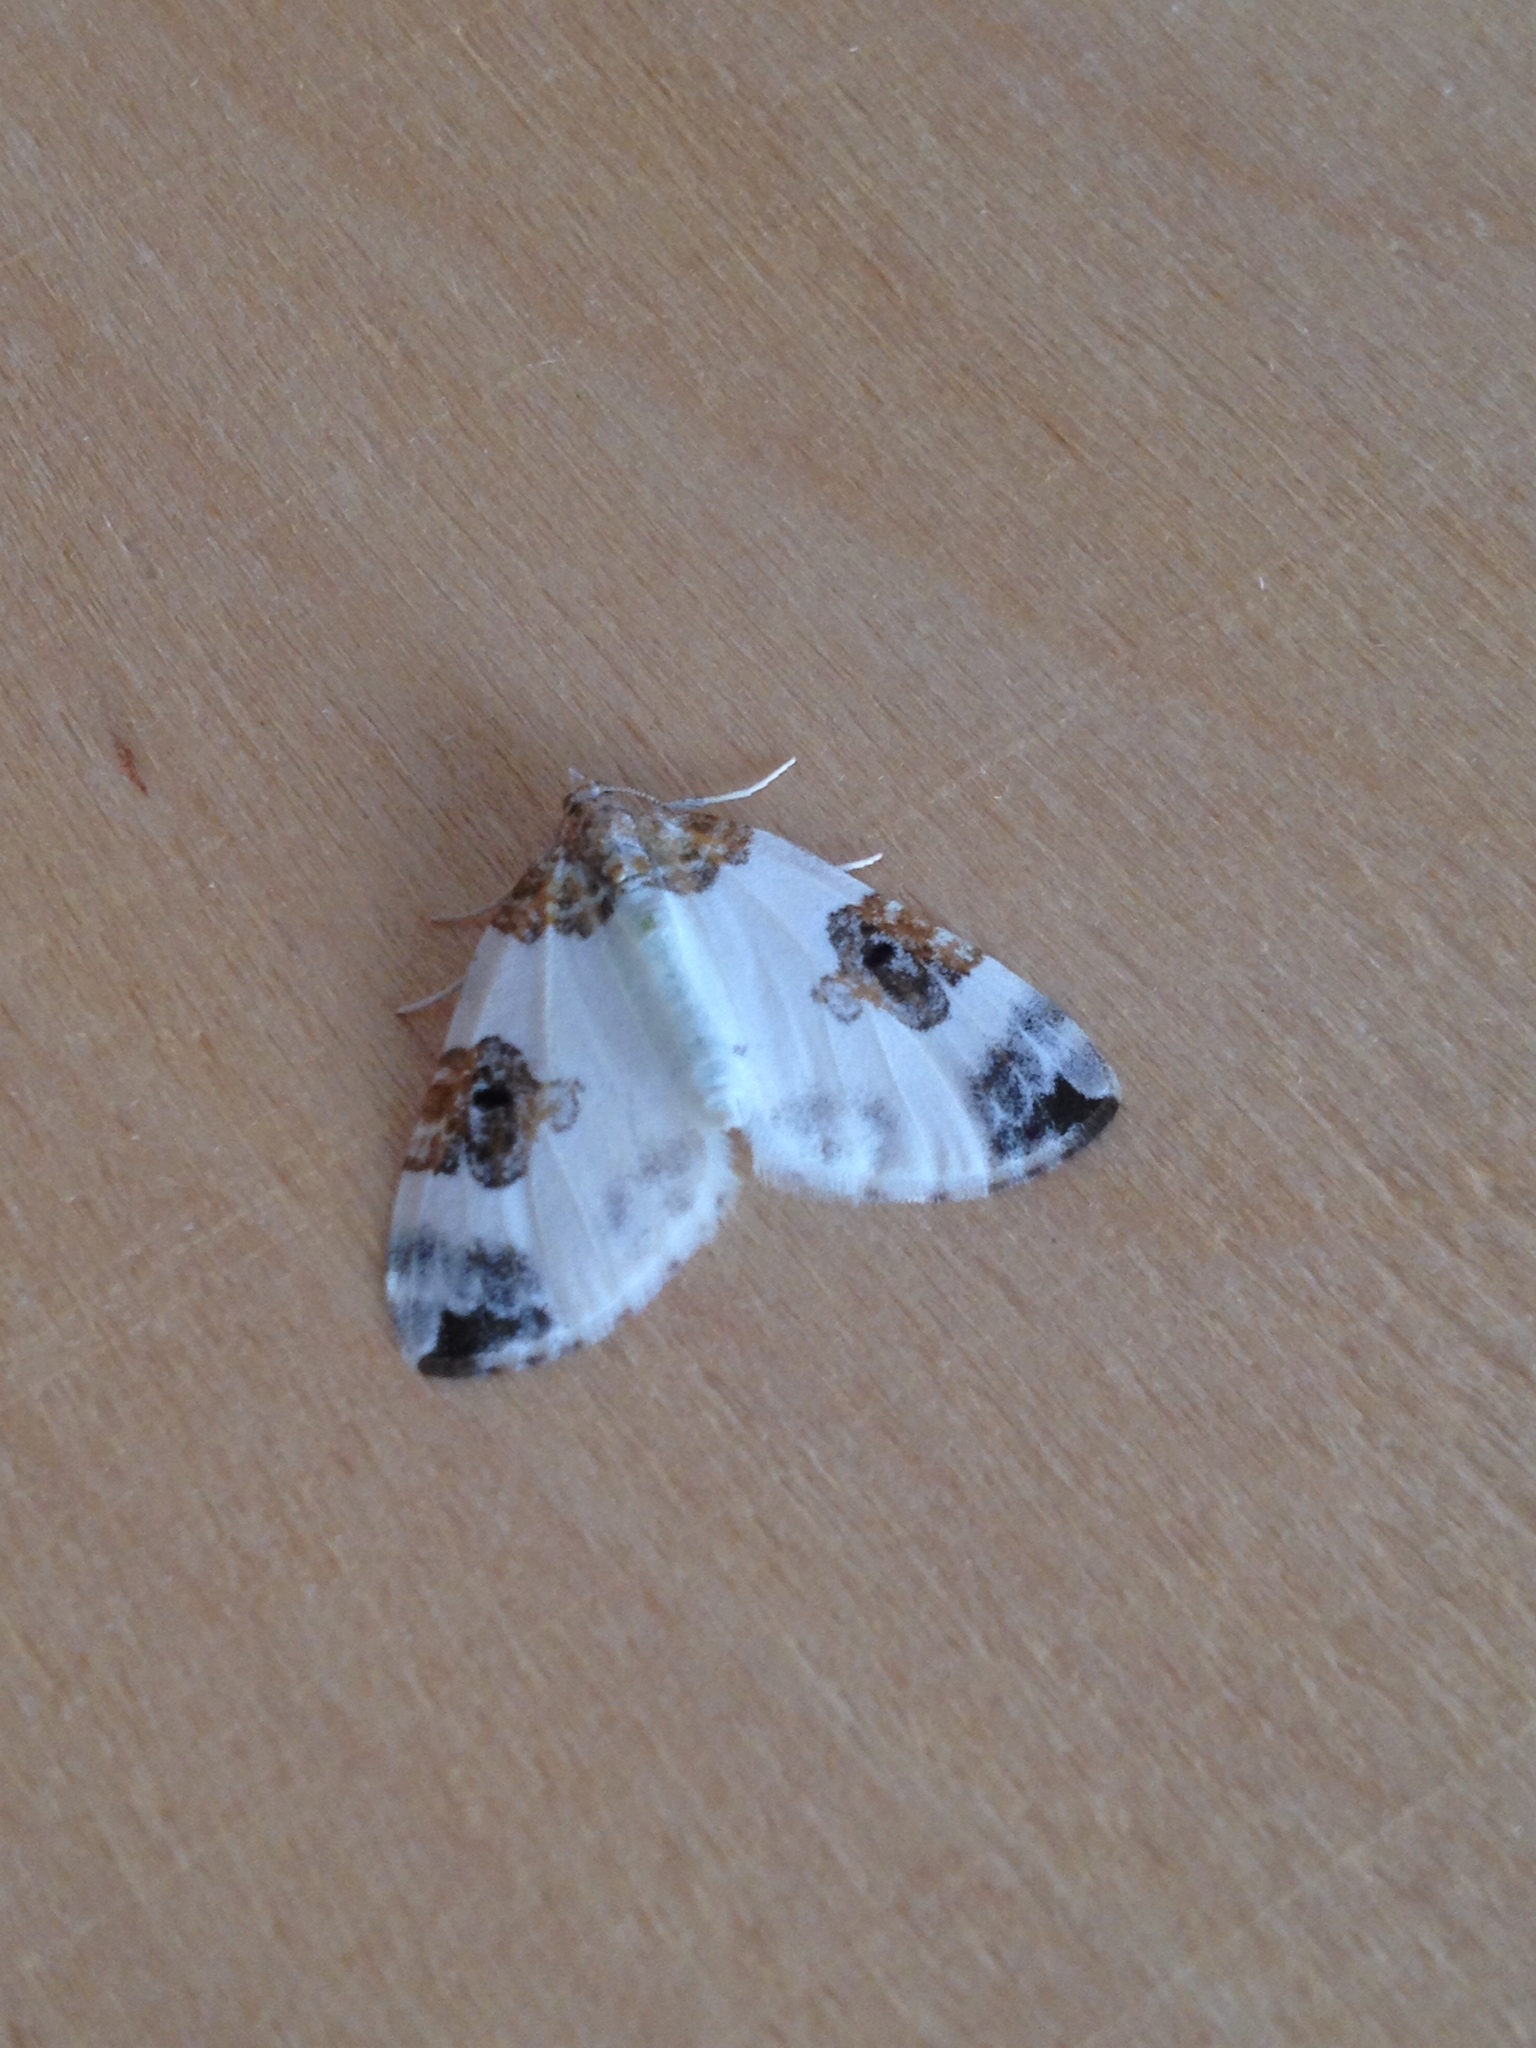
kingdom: Animalia
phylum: Arthropoda
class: Insecta
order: Lepidoptera
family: Geometridae
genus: Plemyria
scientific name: Plemyria rubiginata
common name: Blue-bordered carpet
